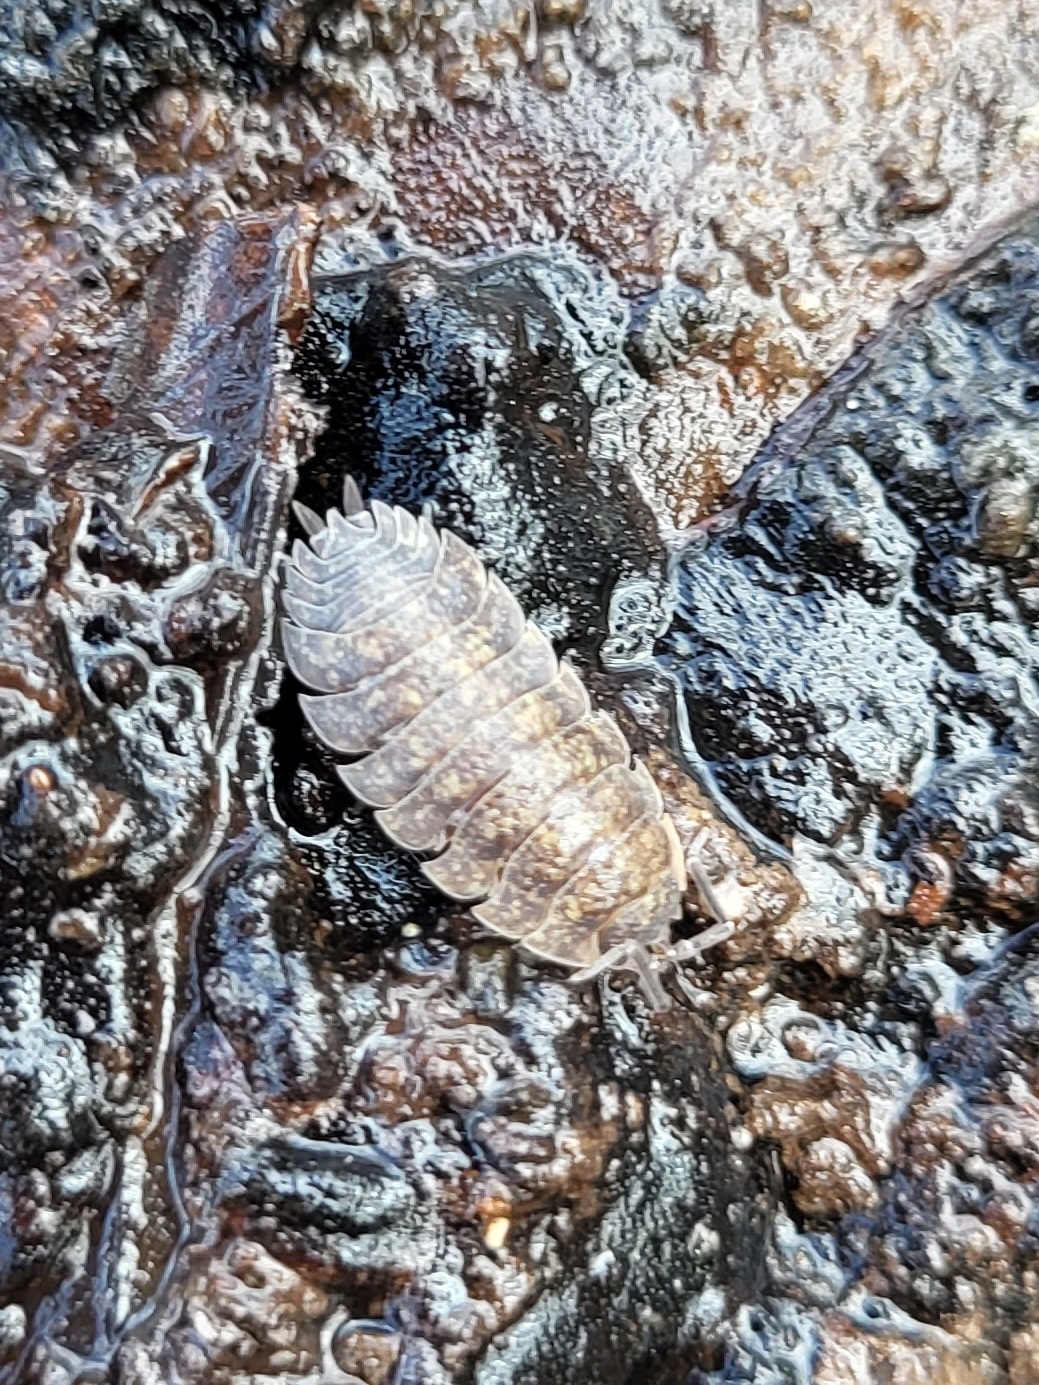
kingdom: Animalia
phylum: Arthropoda
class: Malacostraca
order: Isopoda
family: Porcellionidae
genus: Porcellio
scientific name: Porcellio scaber
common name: Common rough woodlouse
